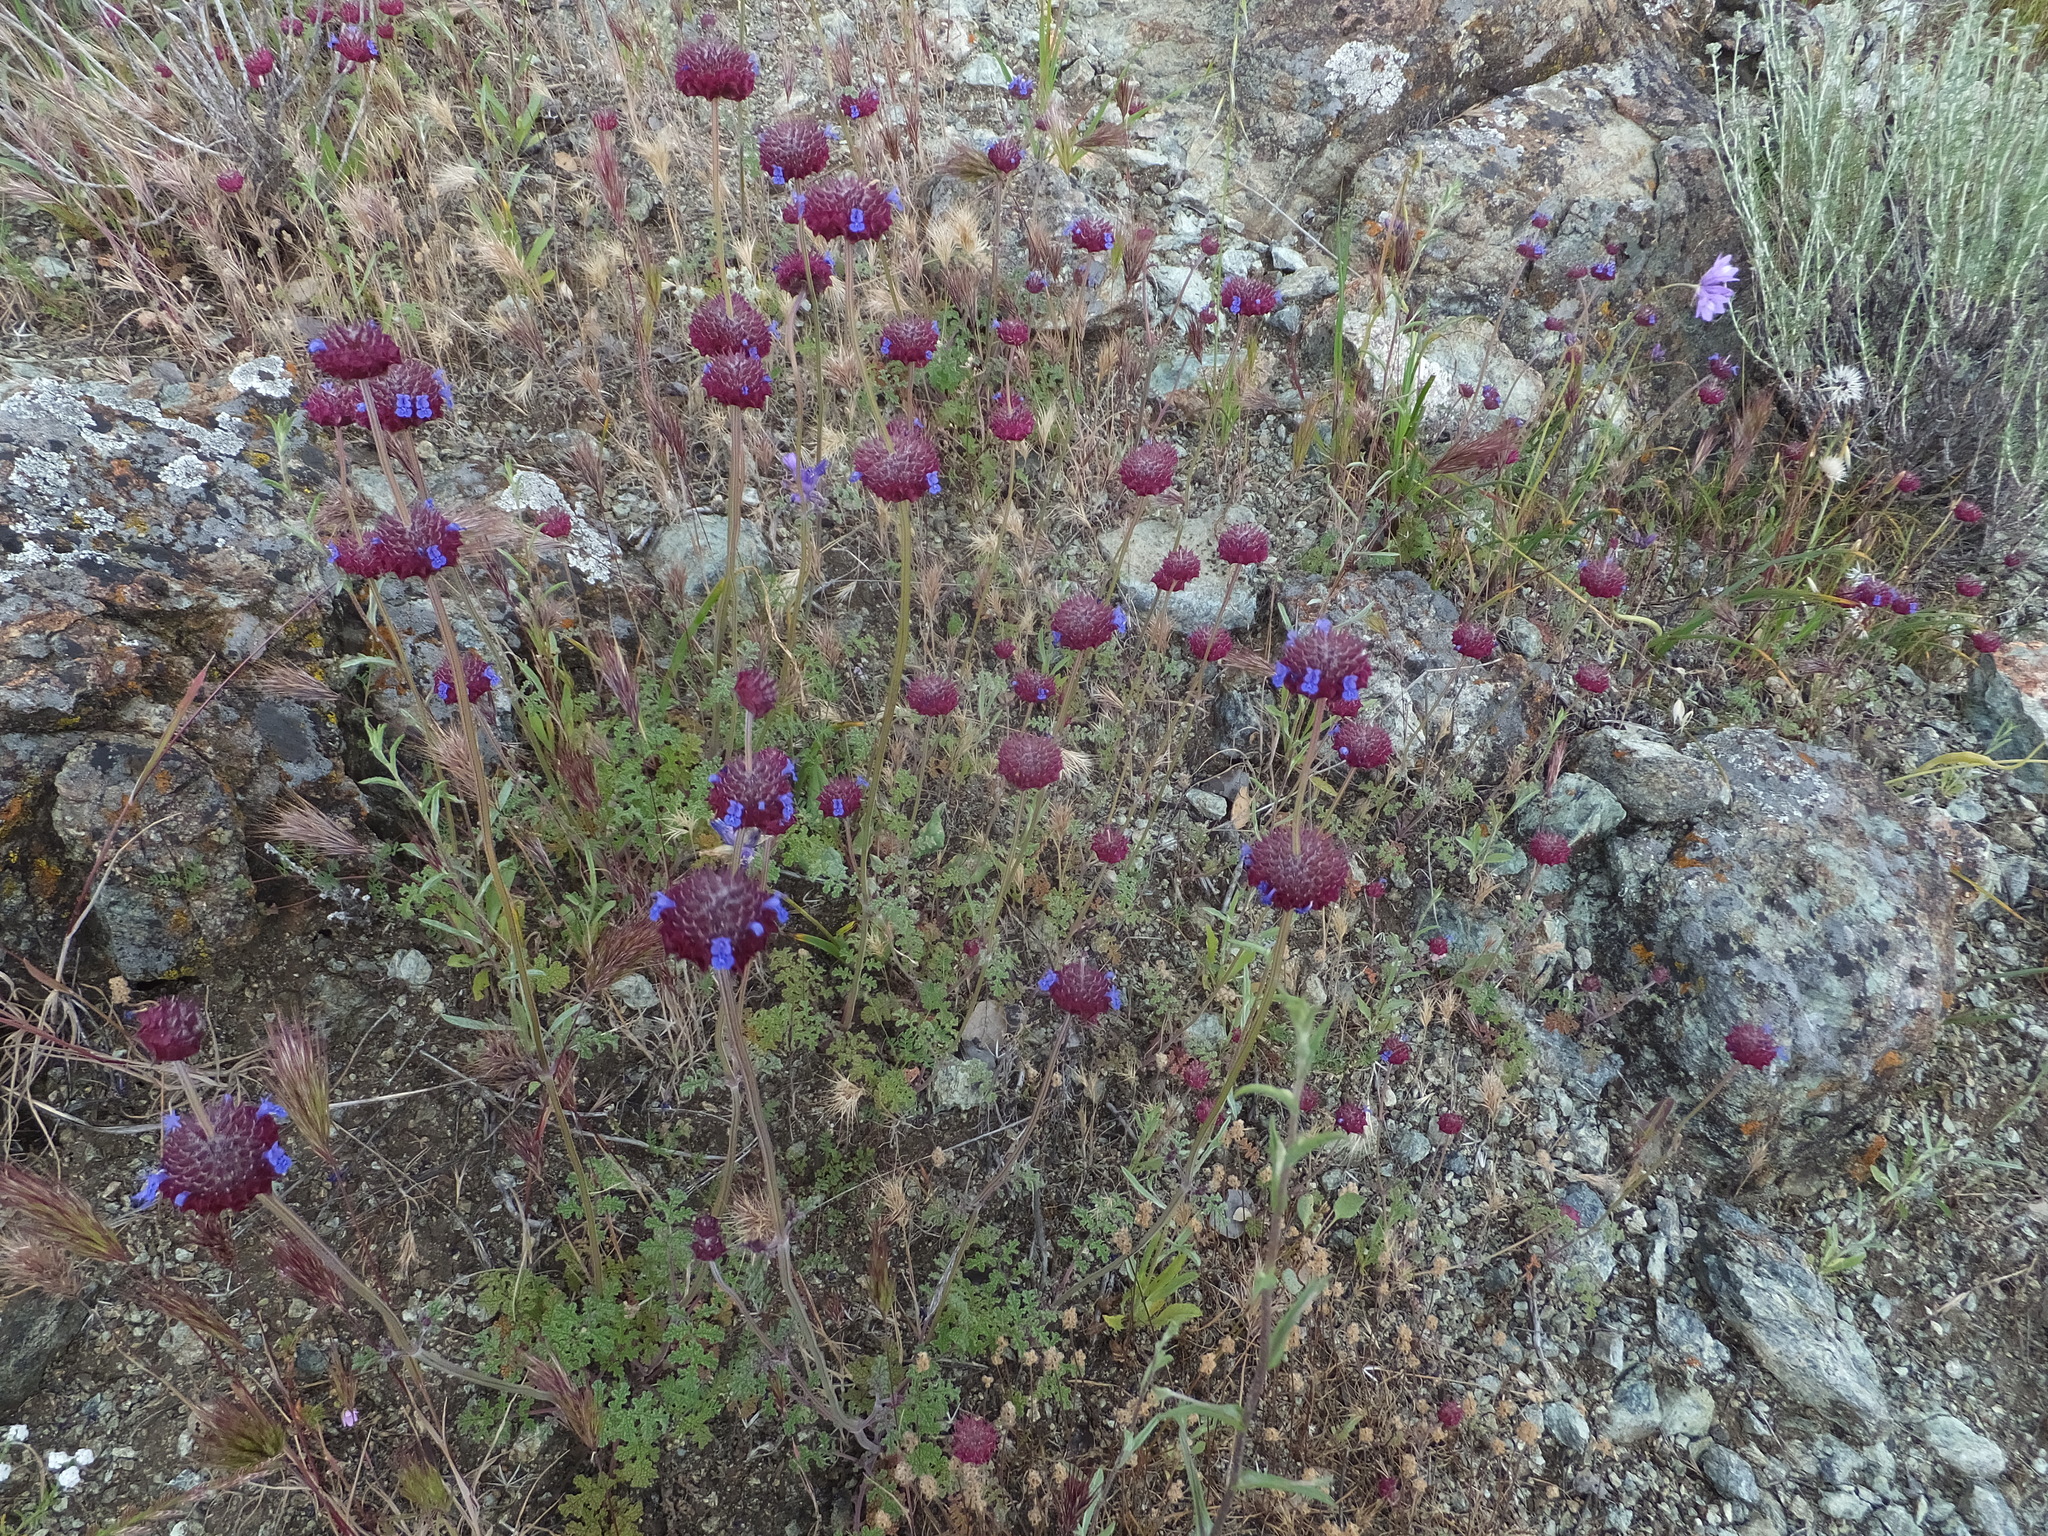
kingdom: Plantae
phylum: Tracheophyta
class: Magnoliopsida
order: Lamiales
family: Lamiaceae
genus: Salvia
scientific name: Salvia columbariae
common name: Chia
